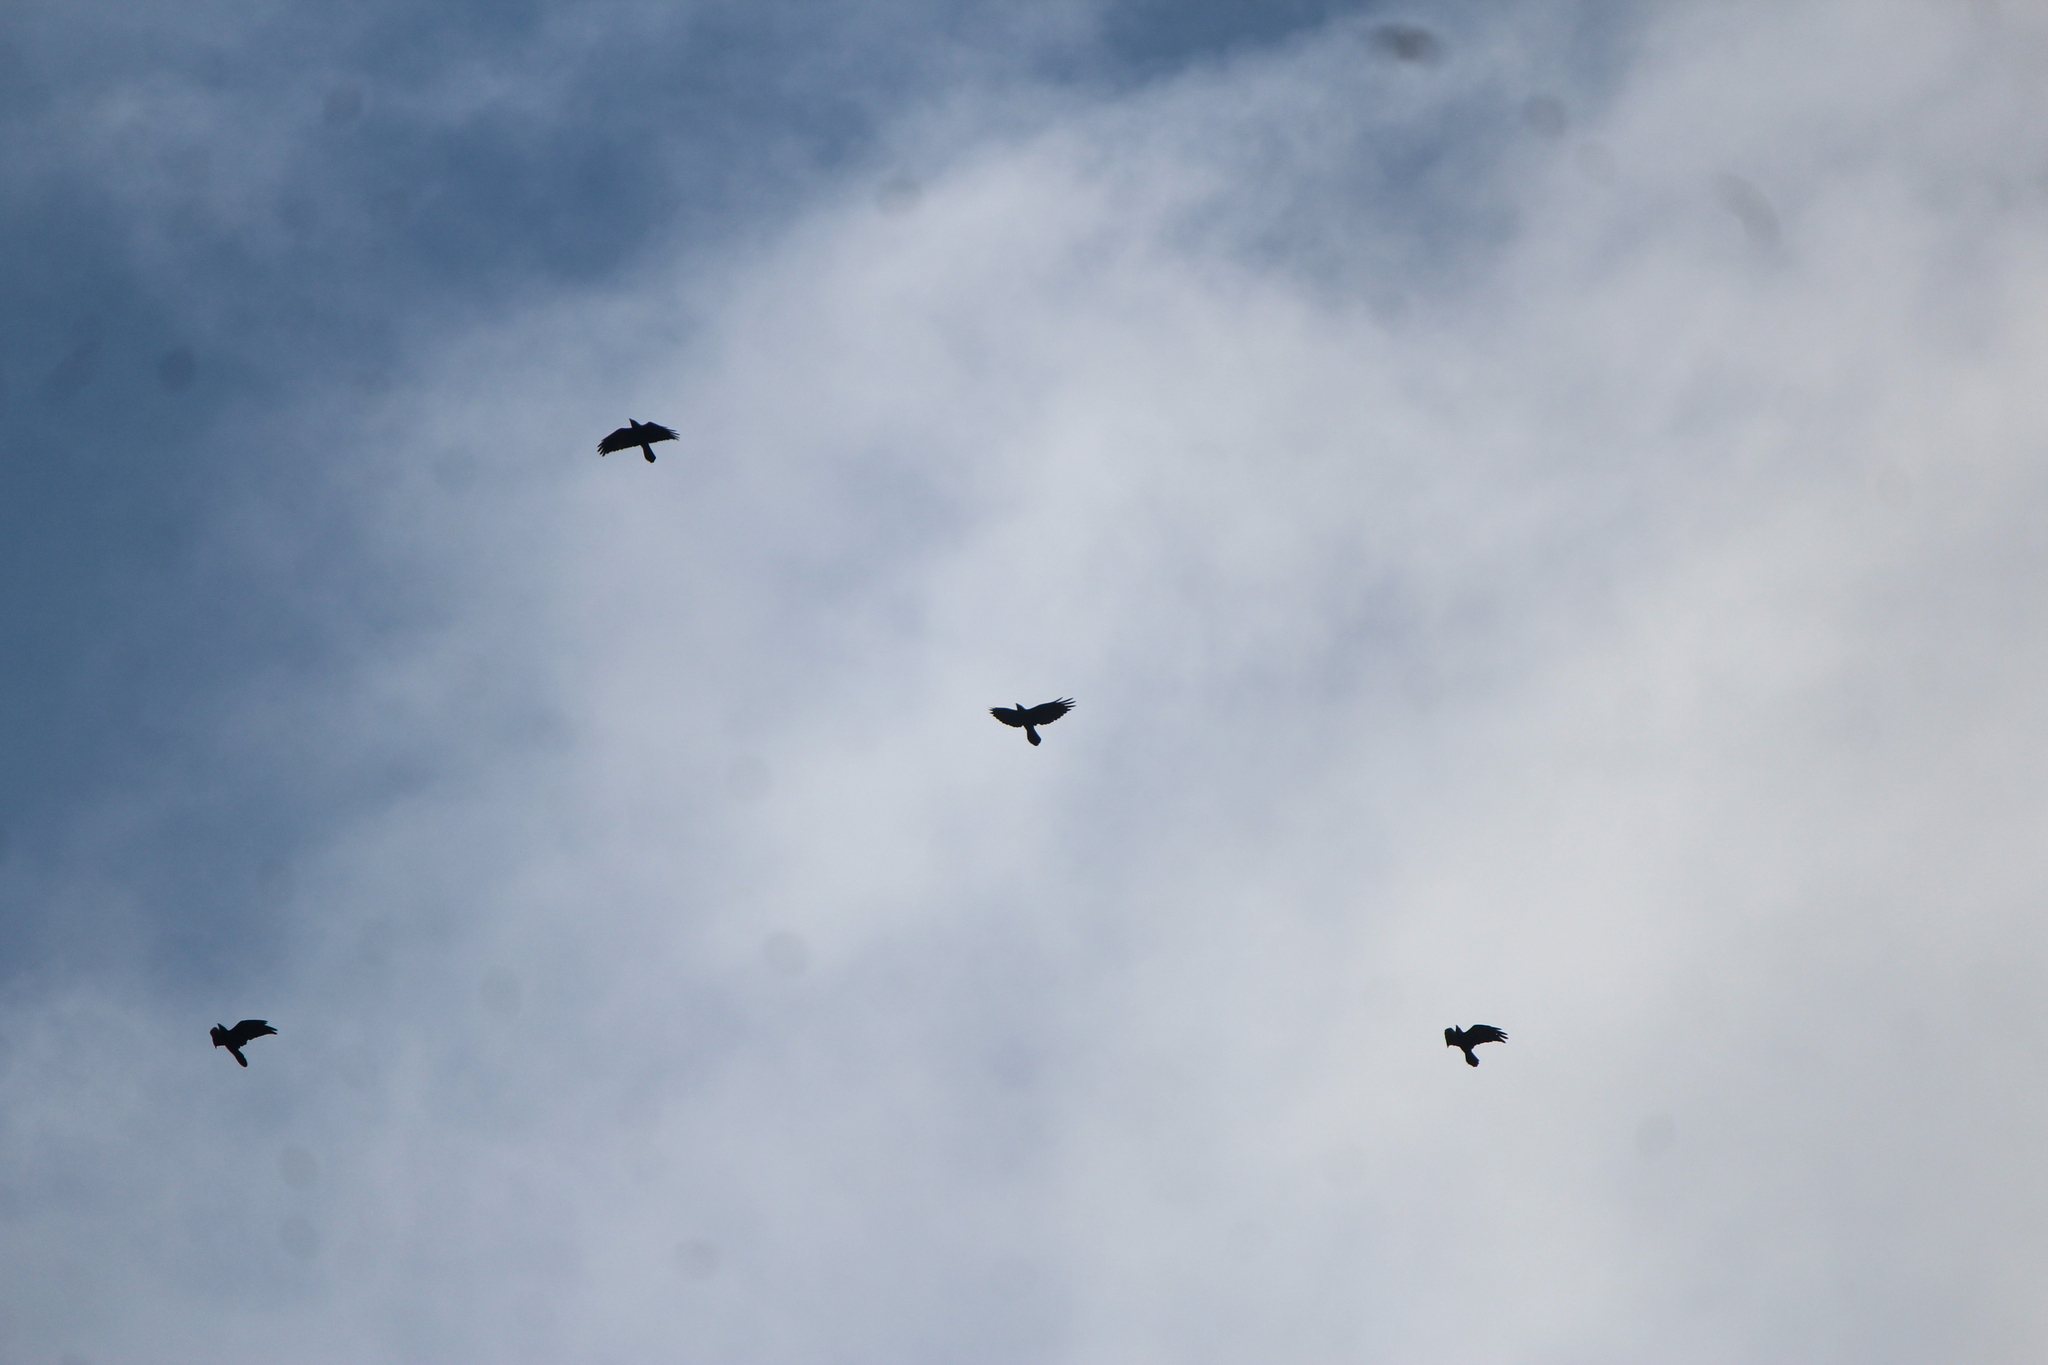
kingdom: Animalia
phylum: Chordata
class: Aves
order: Passeriformes
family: Corvidae
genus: Corvus
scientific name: Corvus corax
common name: Common raven
